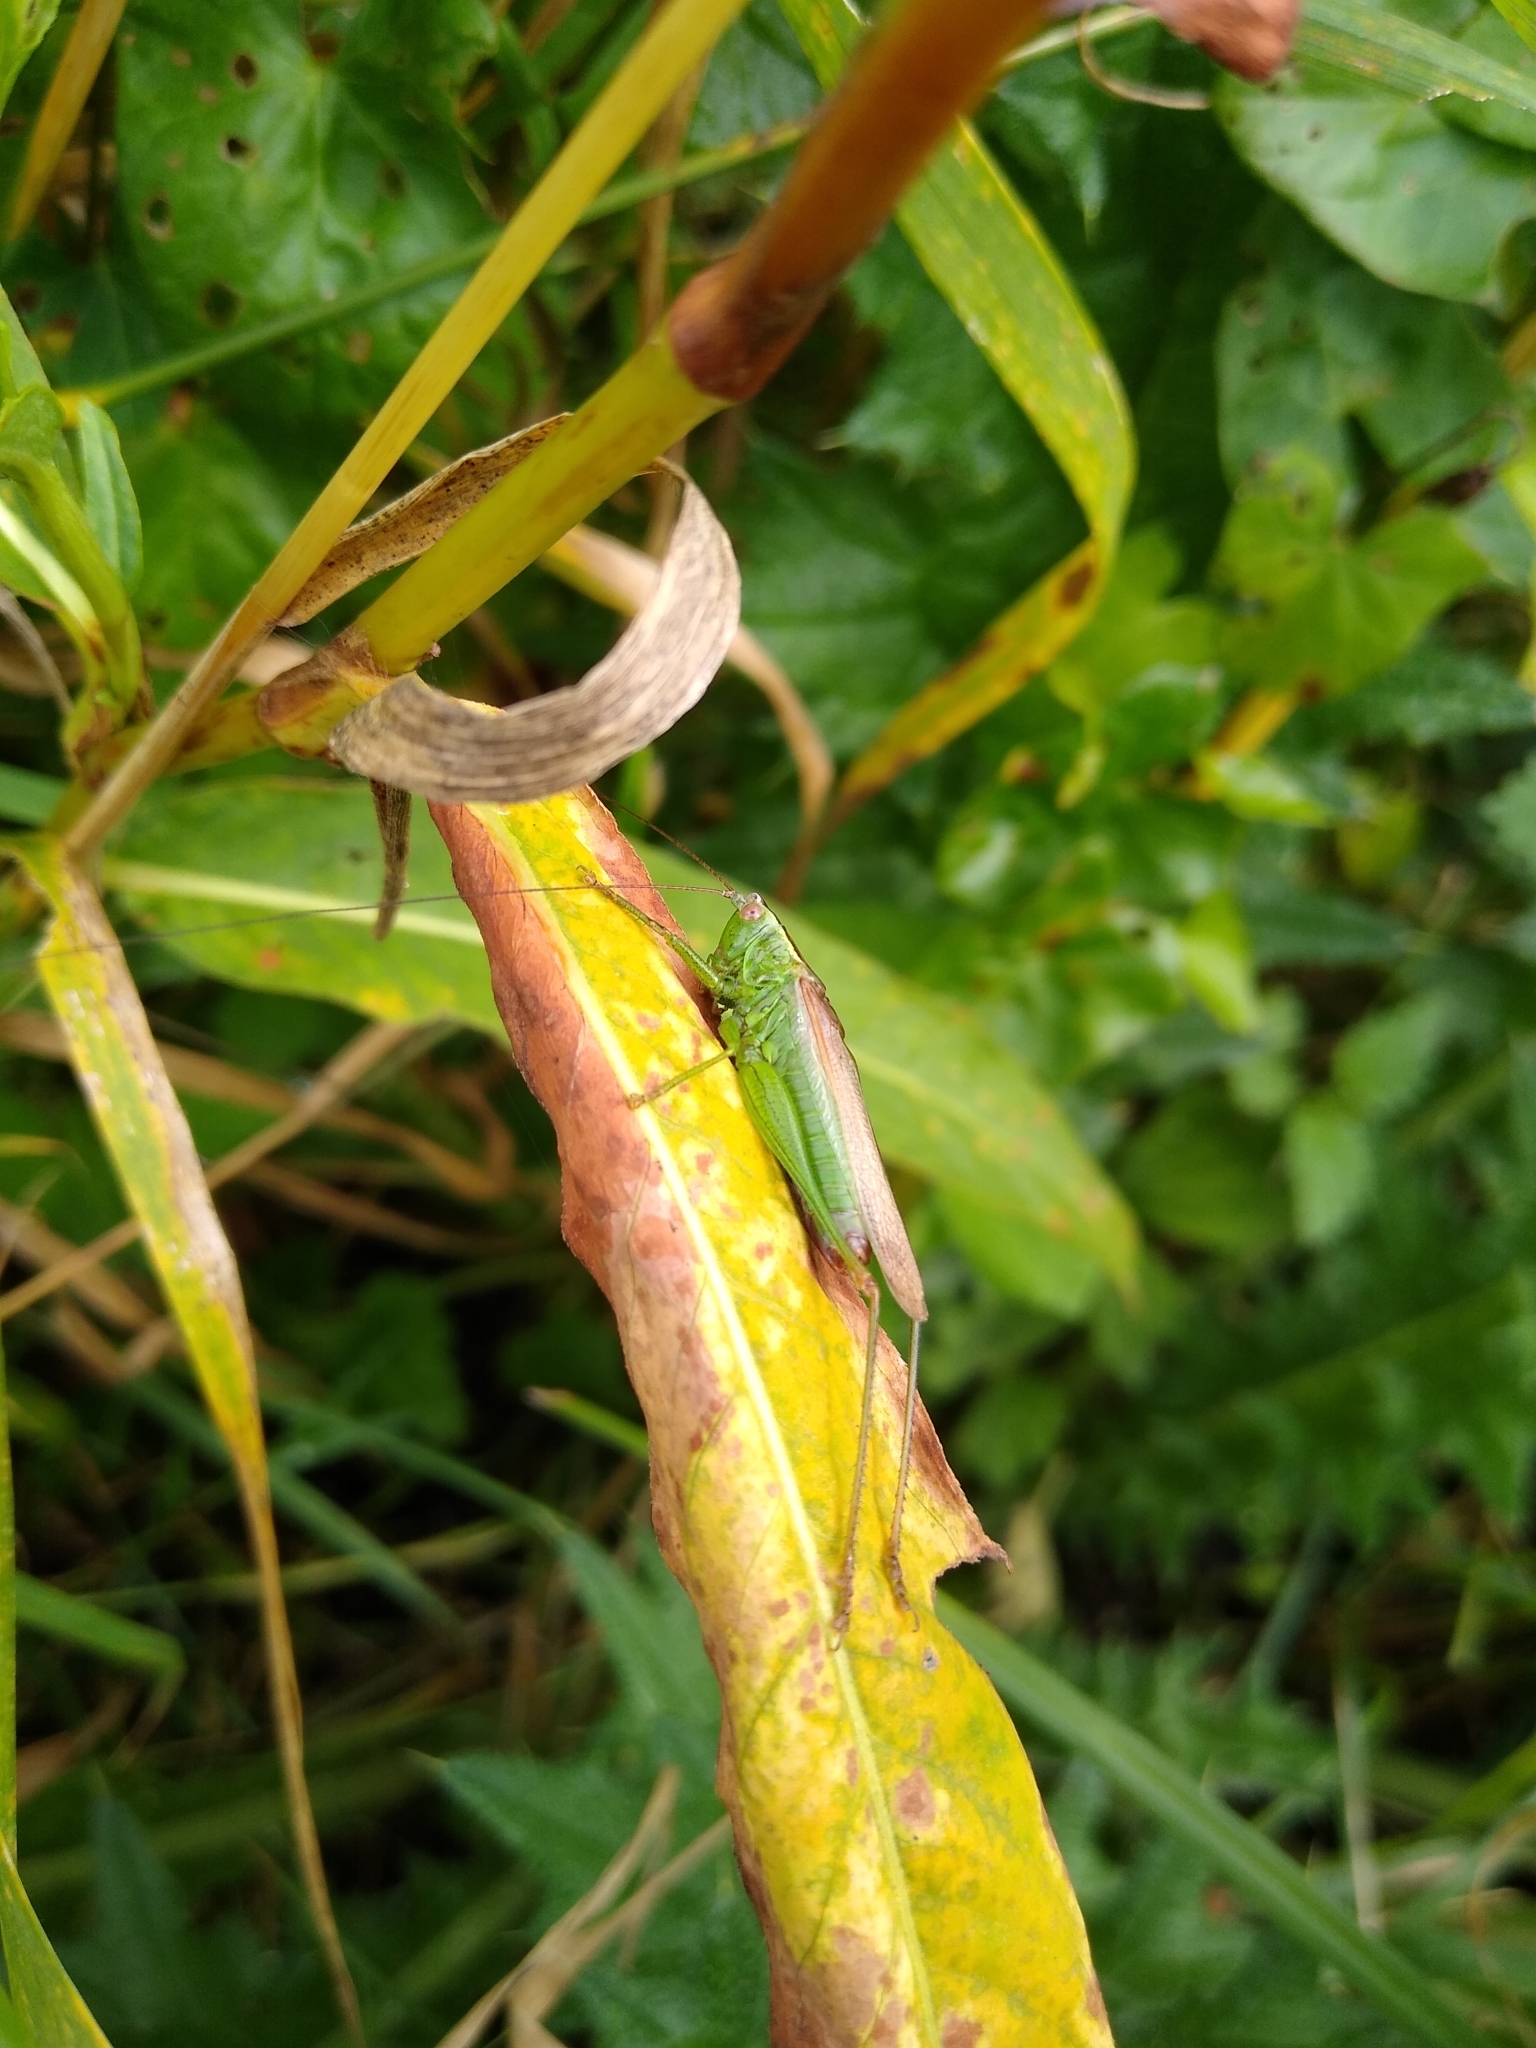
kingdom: Animalia
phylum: Arthropoda
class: Insecta
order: Orthoptera
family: Tettigoniidae
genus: Conocephalus
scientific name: Conocephalus fuscus
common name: Long-winged conehead
